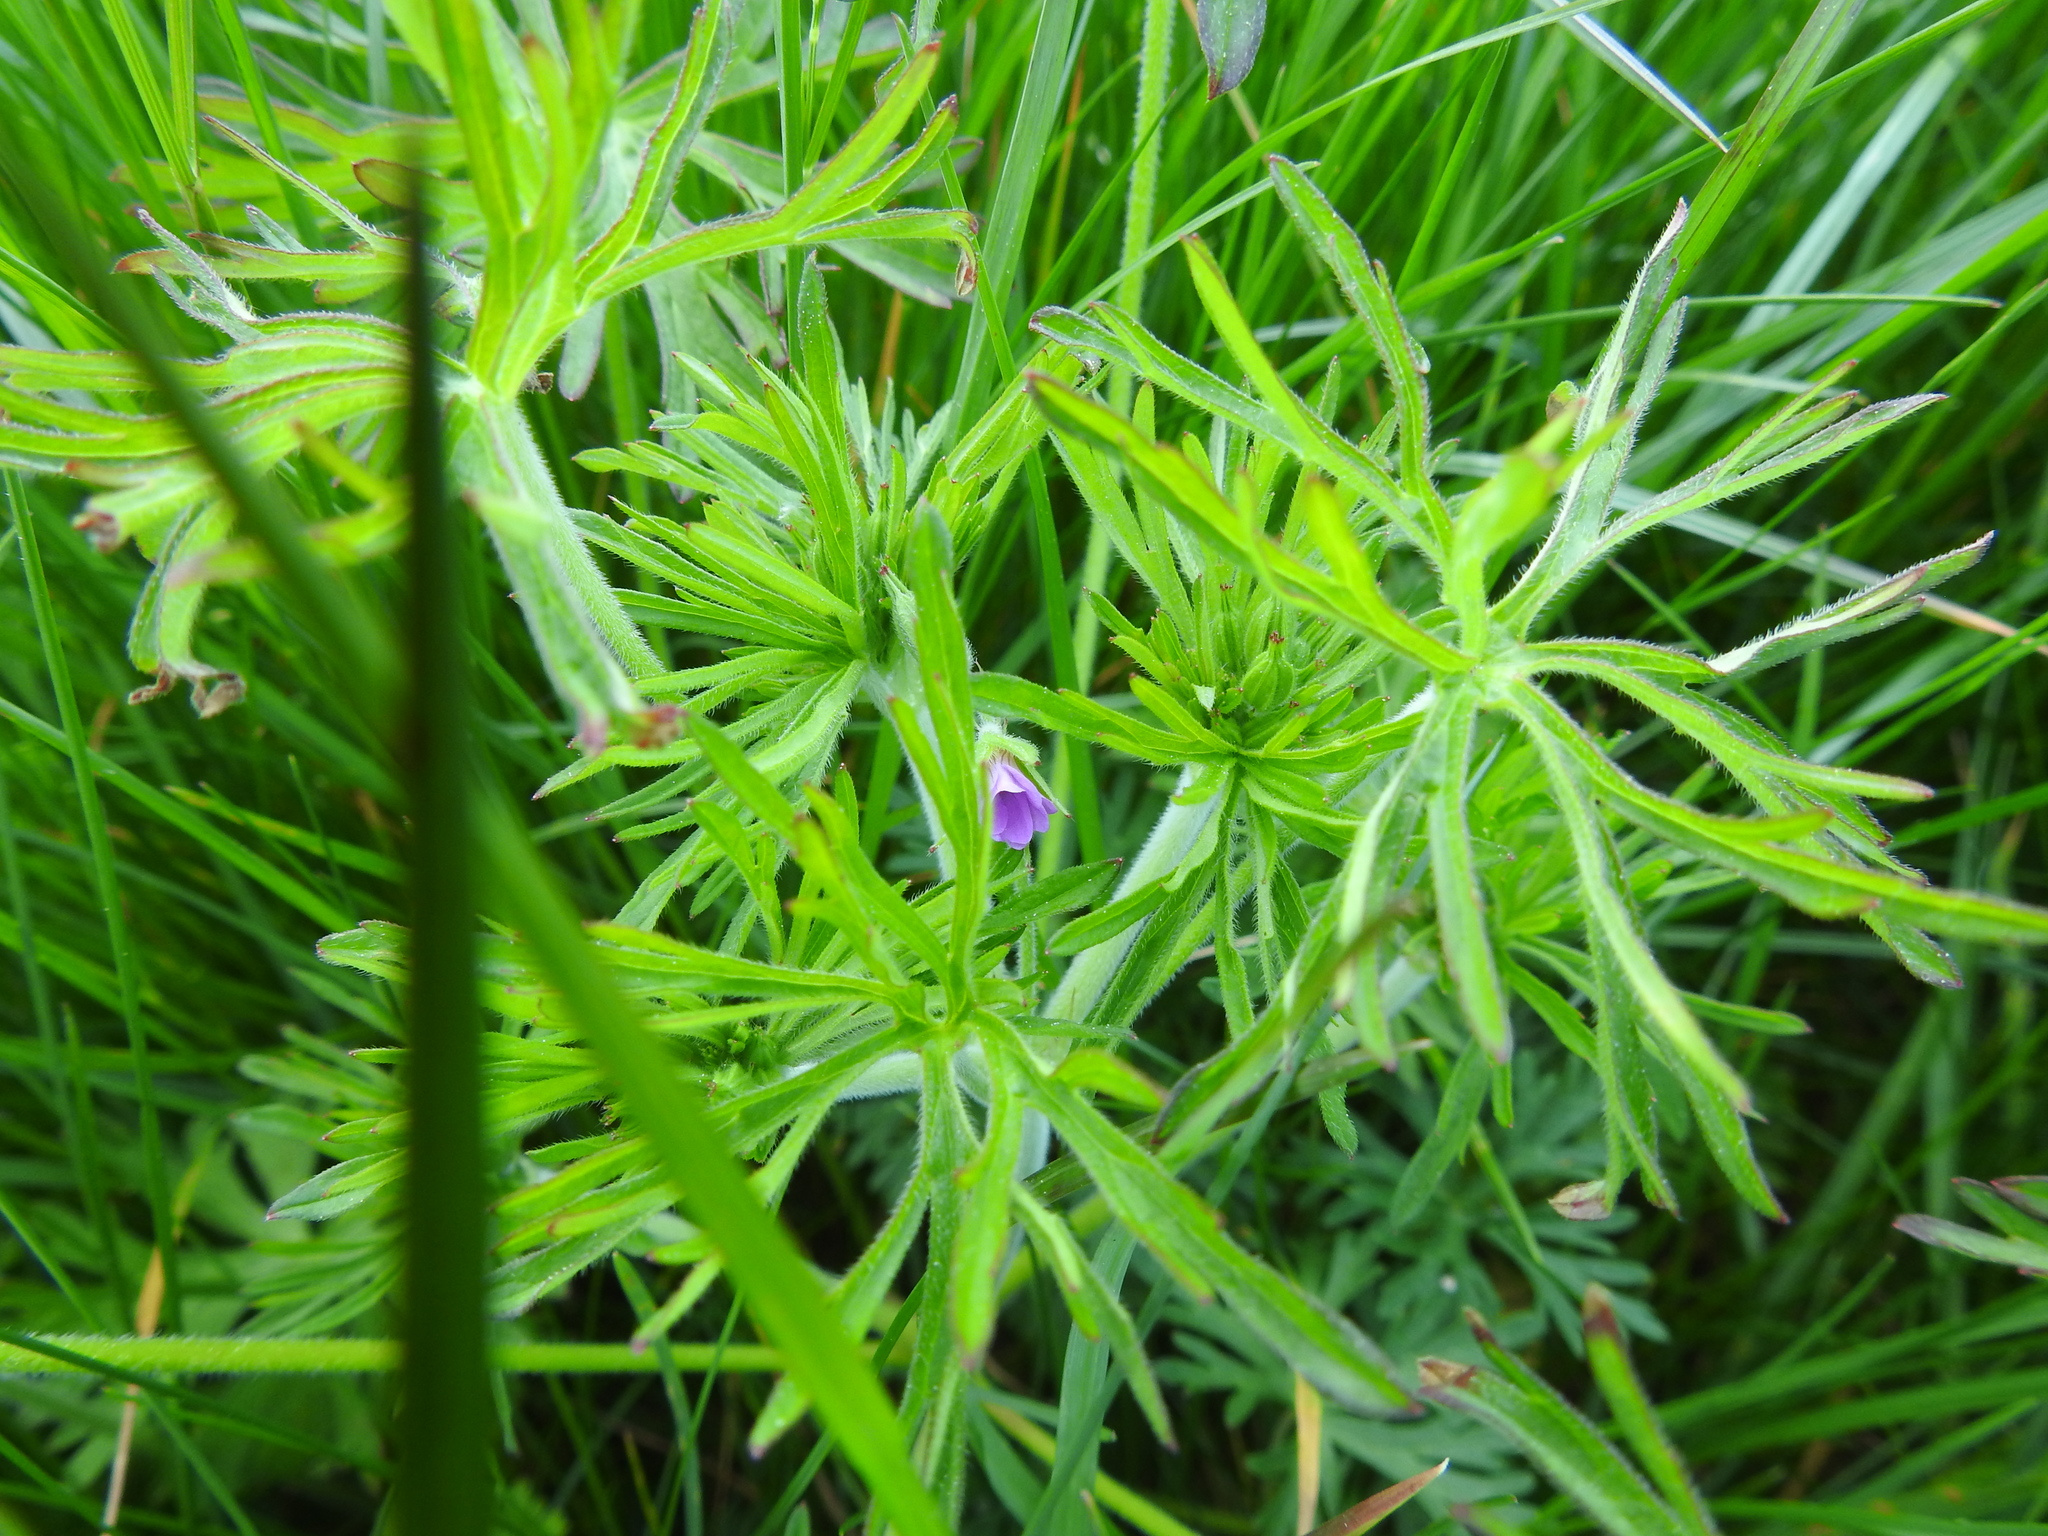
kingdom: Plantae
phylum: Tracheophyta
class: Magnoliopsida
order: Geraniales
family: Geraniaceae
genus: Geranium
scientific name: Geranium dissectum
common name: Cut-leaved crane's-bill
